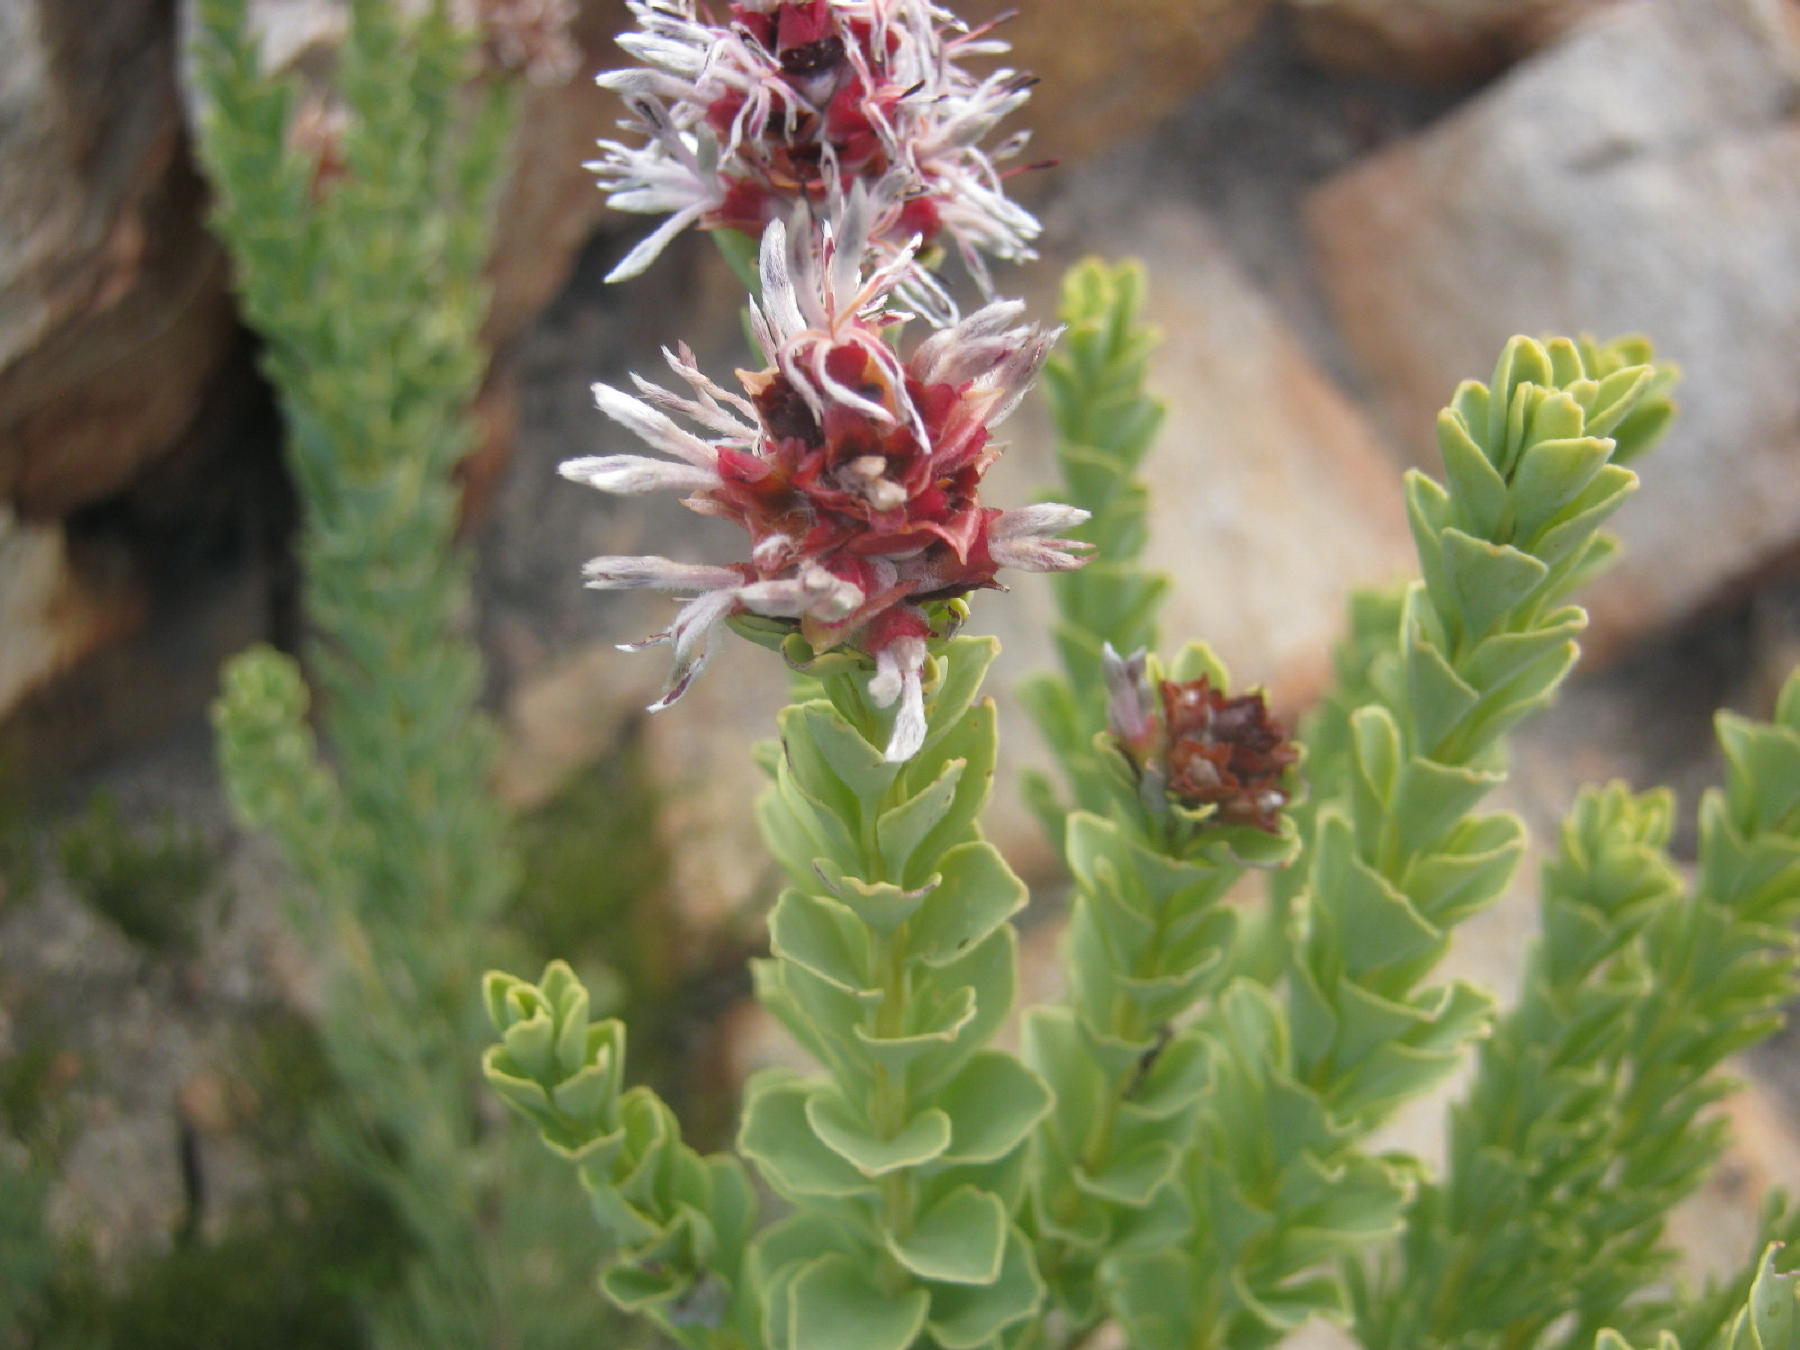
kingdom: Plantae
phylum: Tracheophyta
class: Magnoliopsida
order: Proteales
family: Proteaceae
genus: Paranomus
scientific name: Paranomus roodebergensis
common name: Honey-scented sceptre
